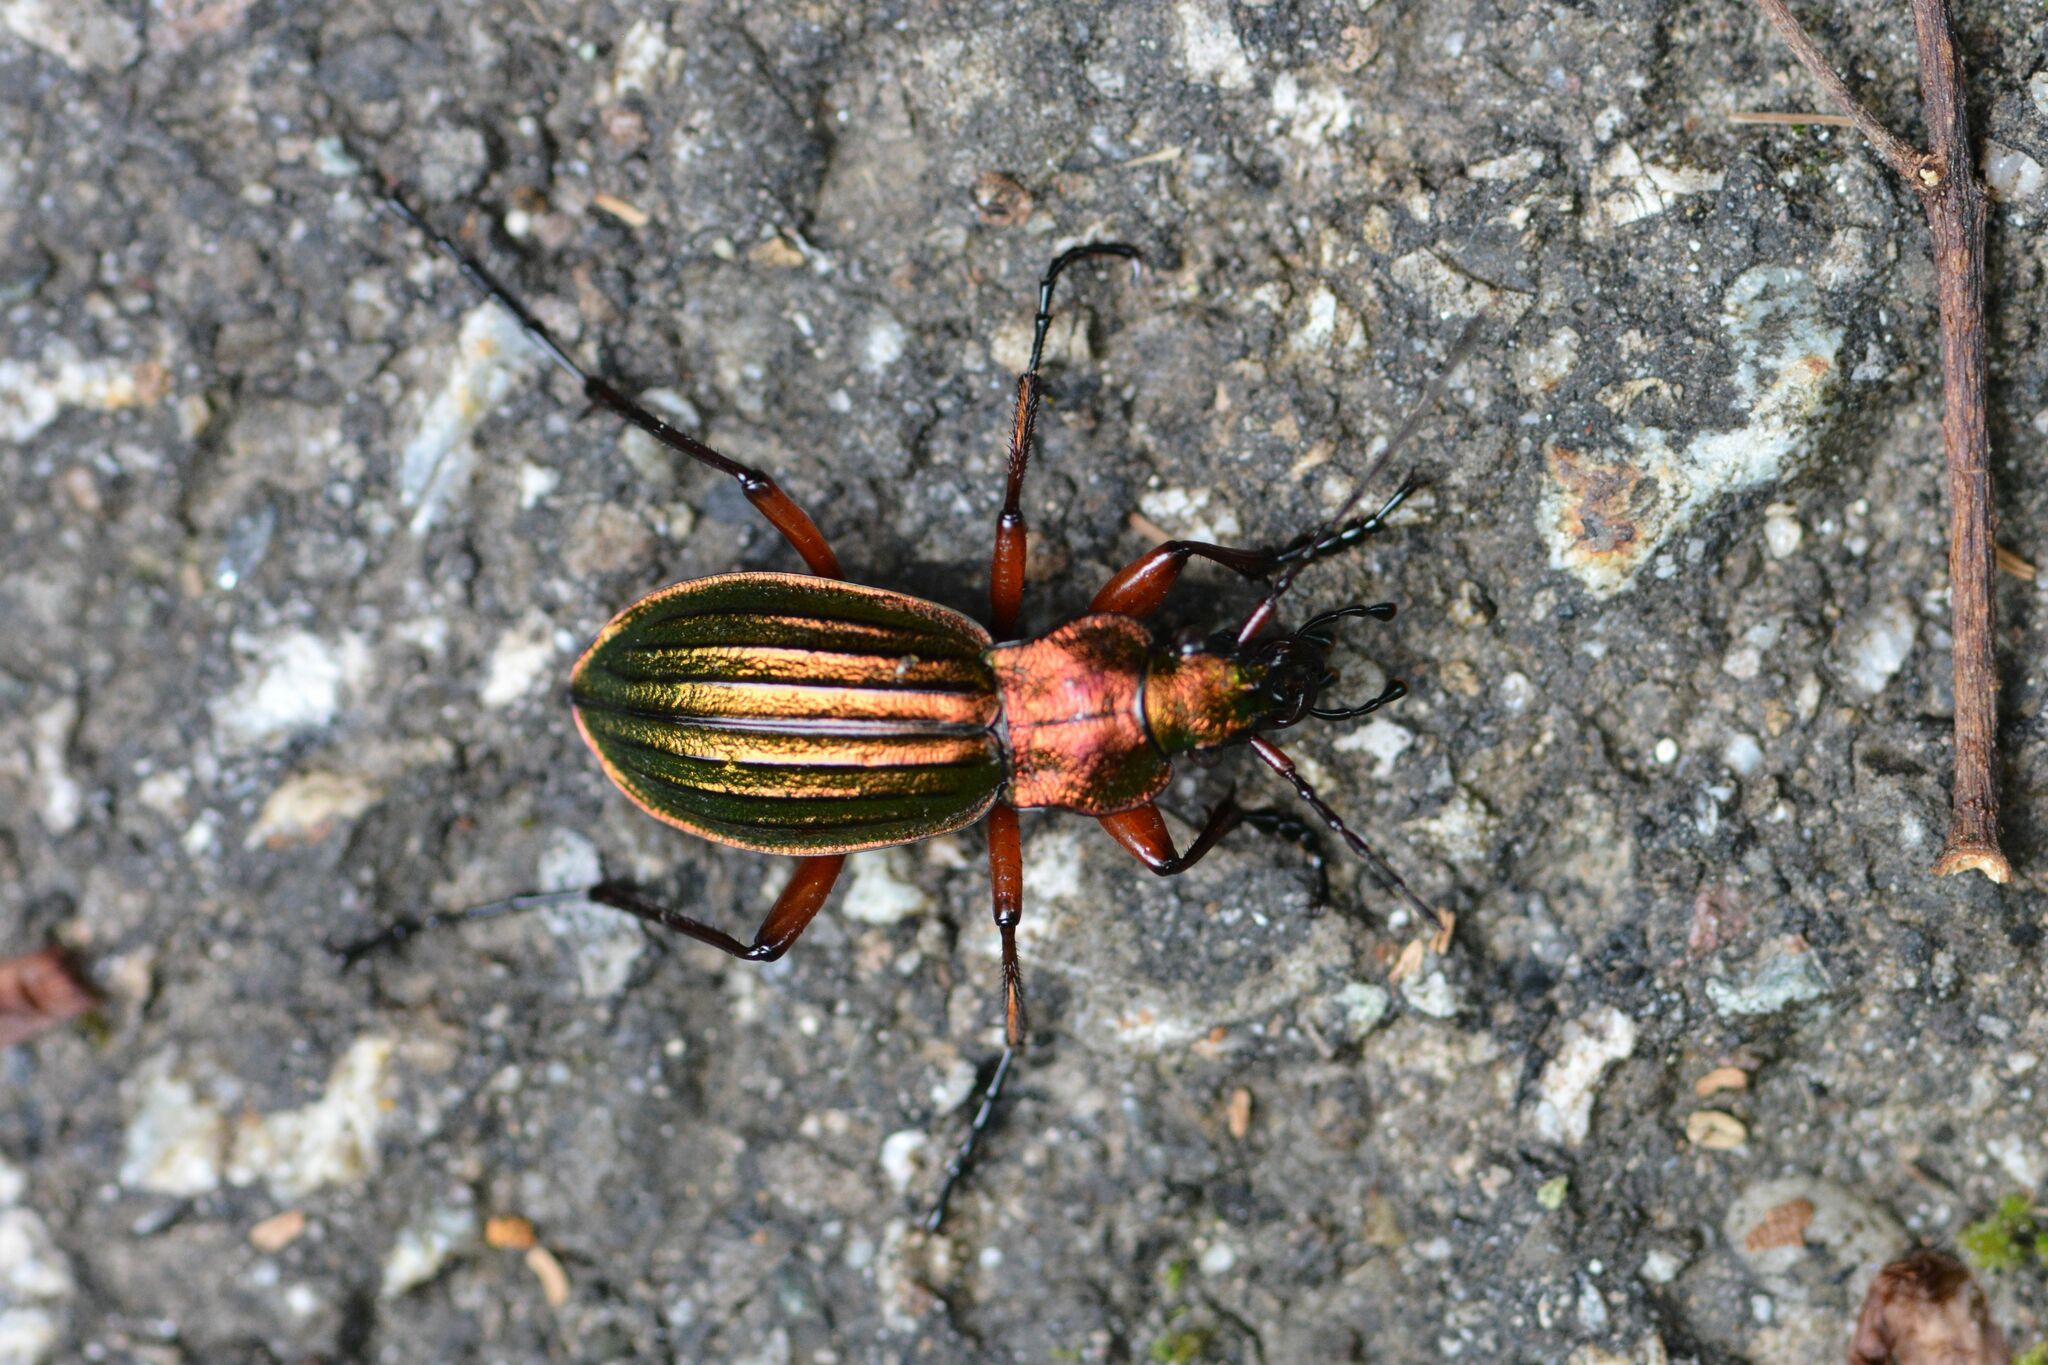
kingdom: Animalia
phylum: Arthropoda
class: Insecta
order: Coleoptera
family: Carabidae
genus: Carabus
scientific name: Carabus auronitens
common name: Carabus auronitens
